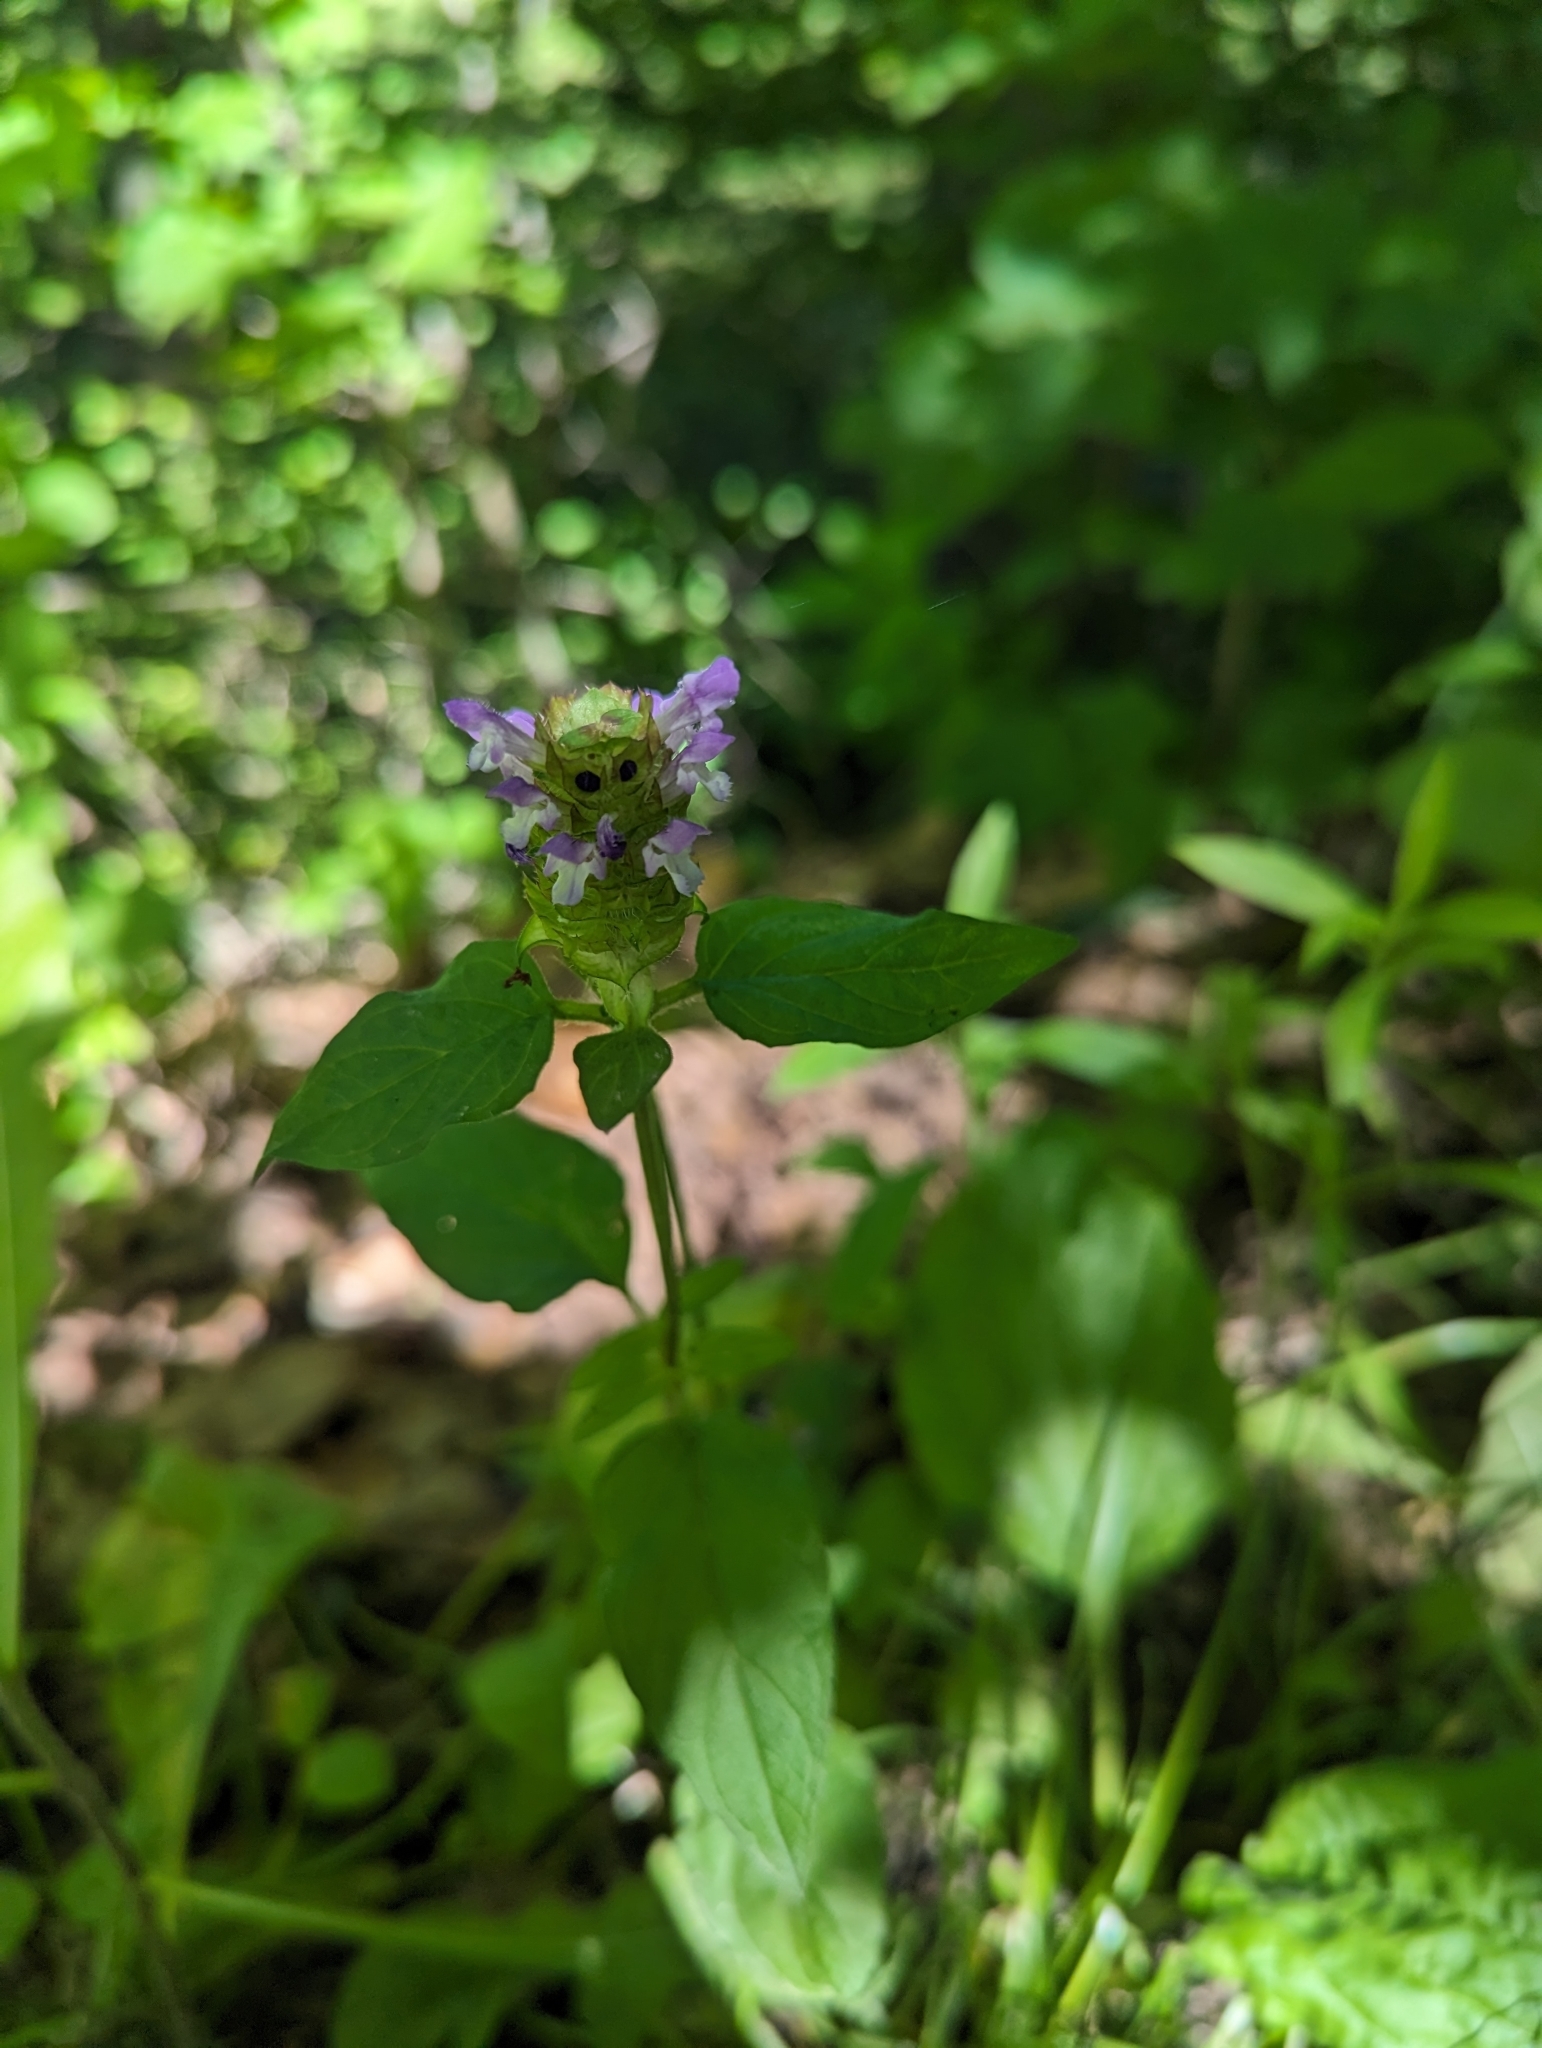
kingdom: Plantae
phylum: Tracheophyta
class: Magnoliopsida
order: Lamiales
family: Lamiaceae
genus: Prunella
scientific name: Prunella vulgaris
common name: Heal-all
